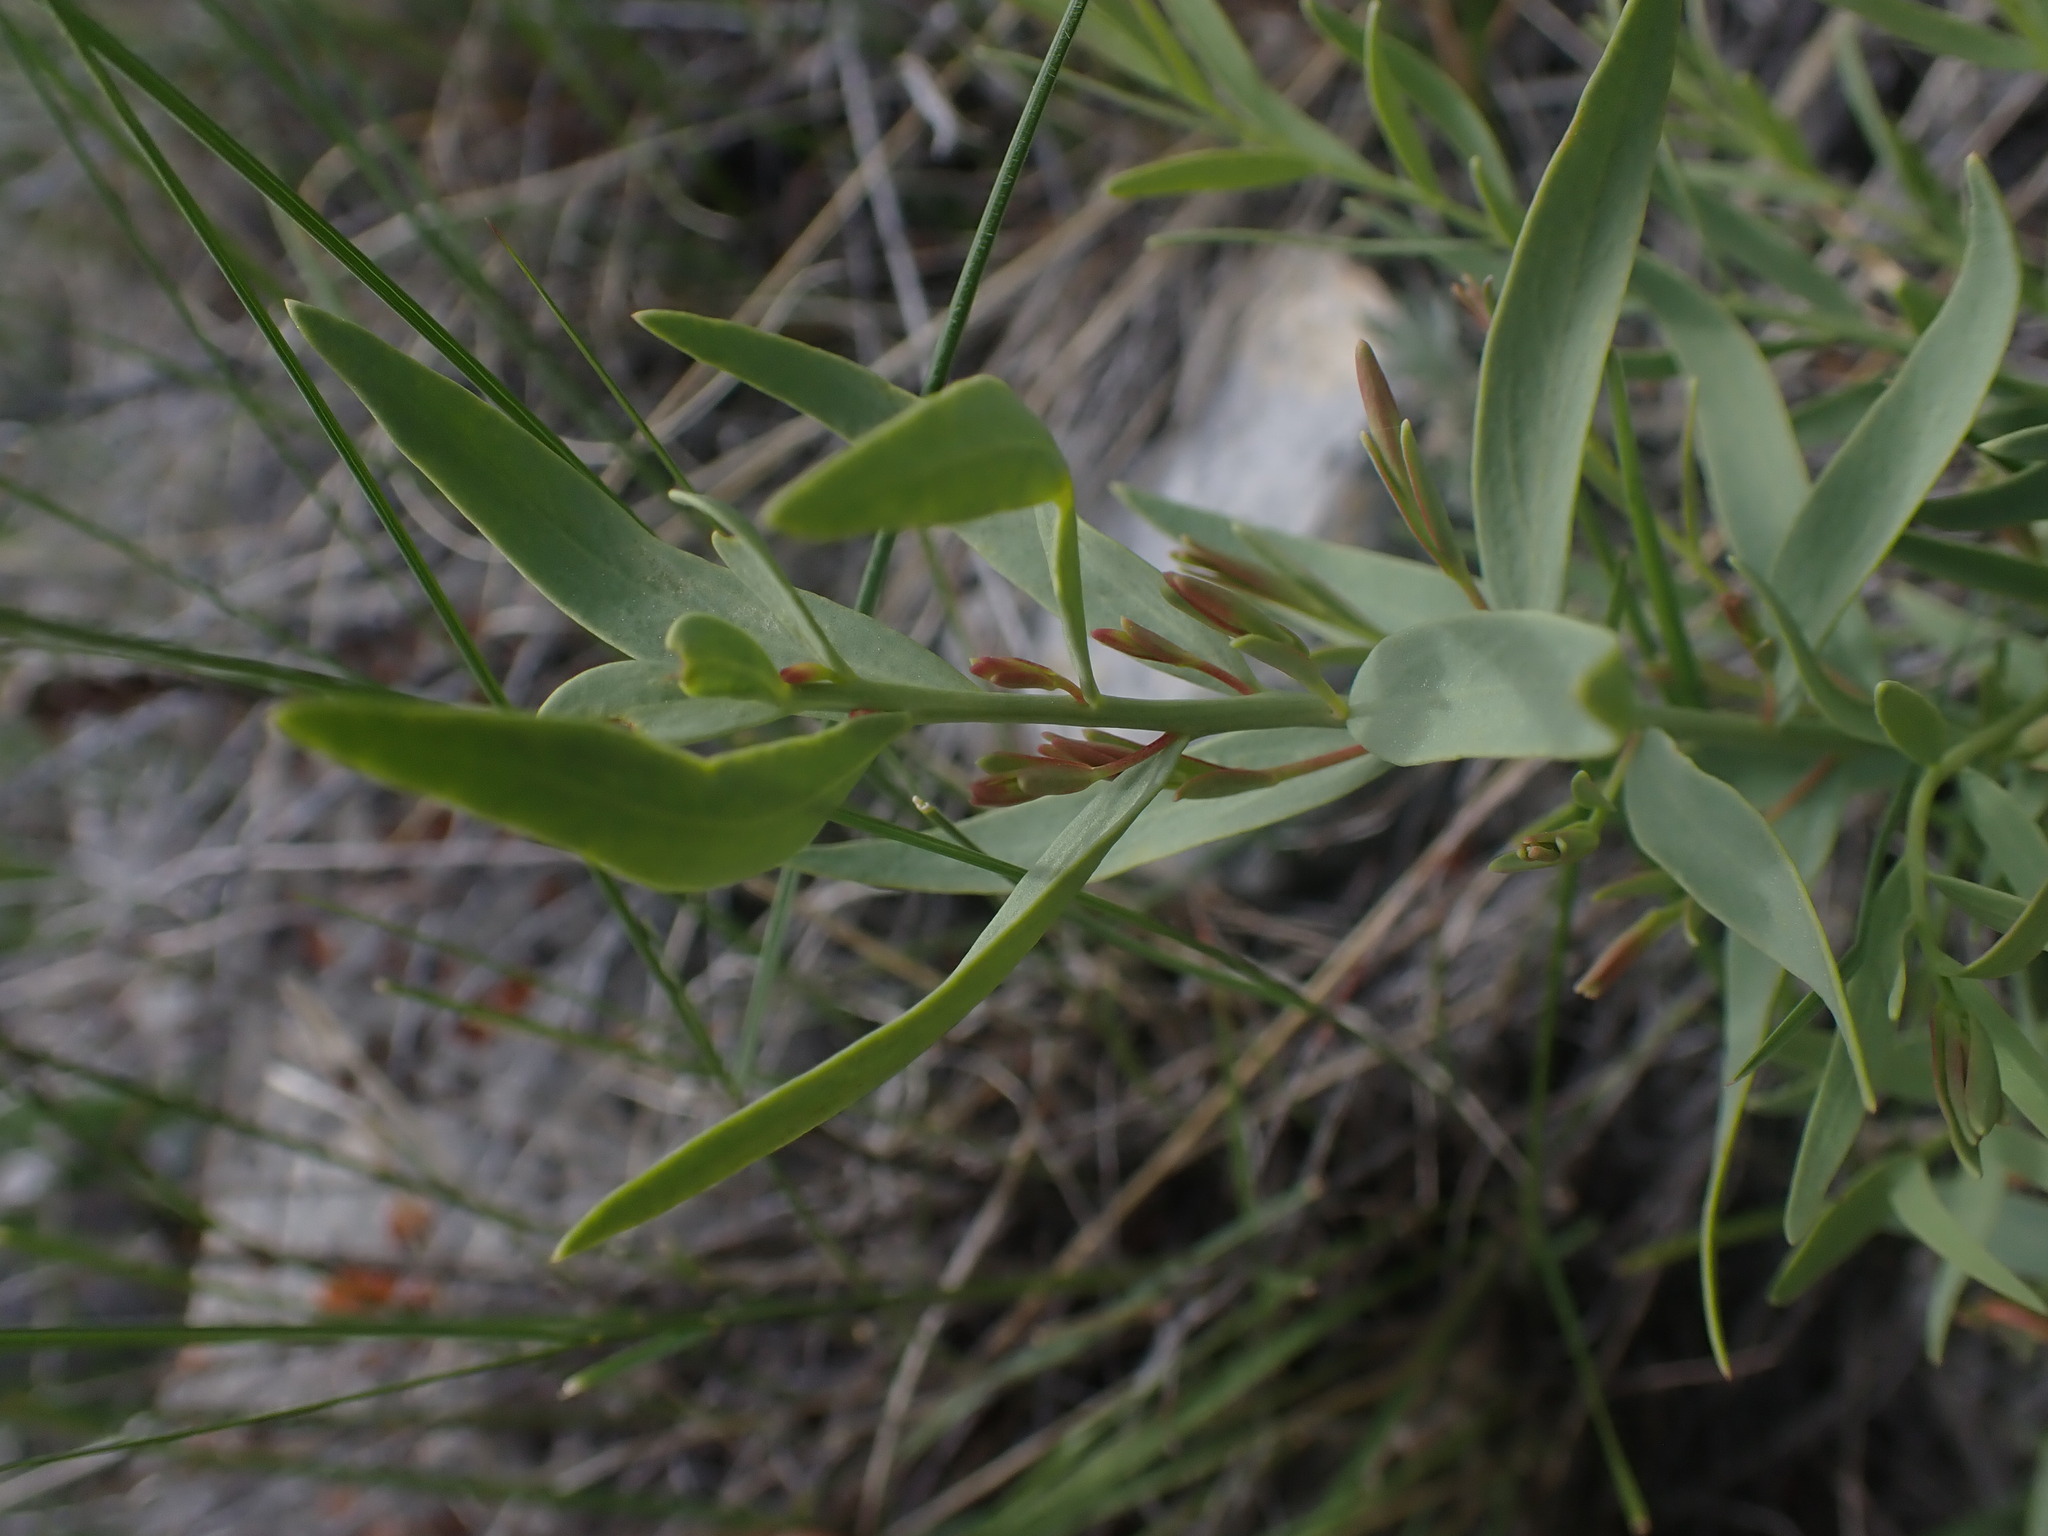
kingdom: Plantae
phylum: Tracheophyta
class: Magnoliopsida
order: Santalales
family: Comandraceae
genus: Comandra
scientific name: Comandra umbellata
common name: Bastard toadflax
